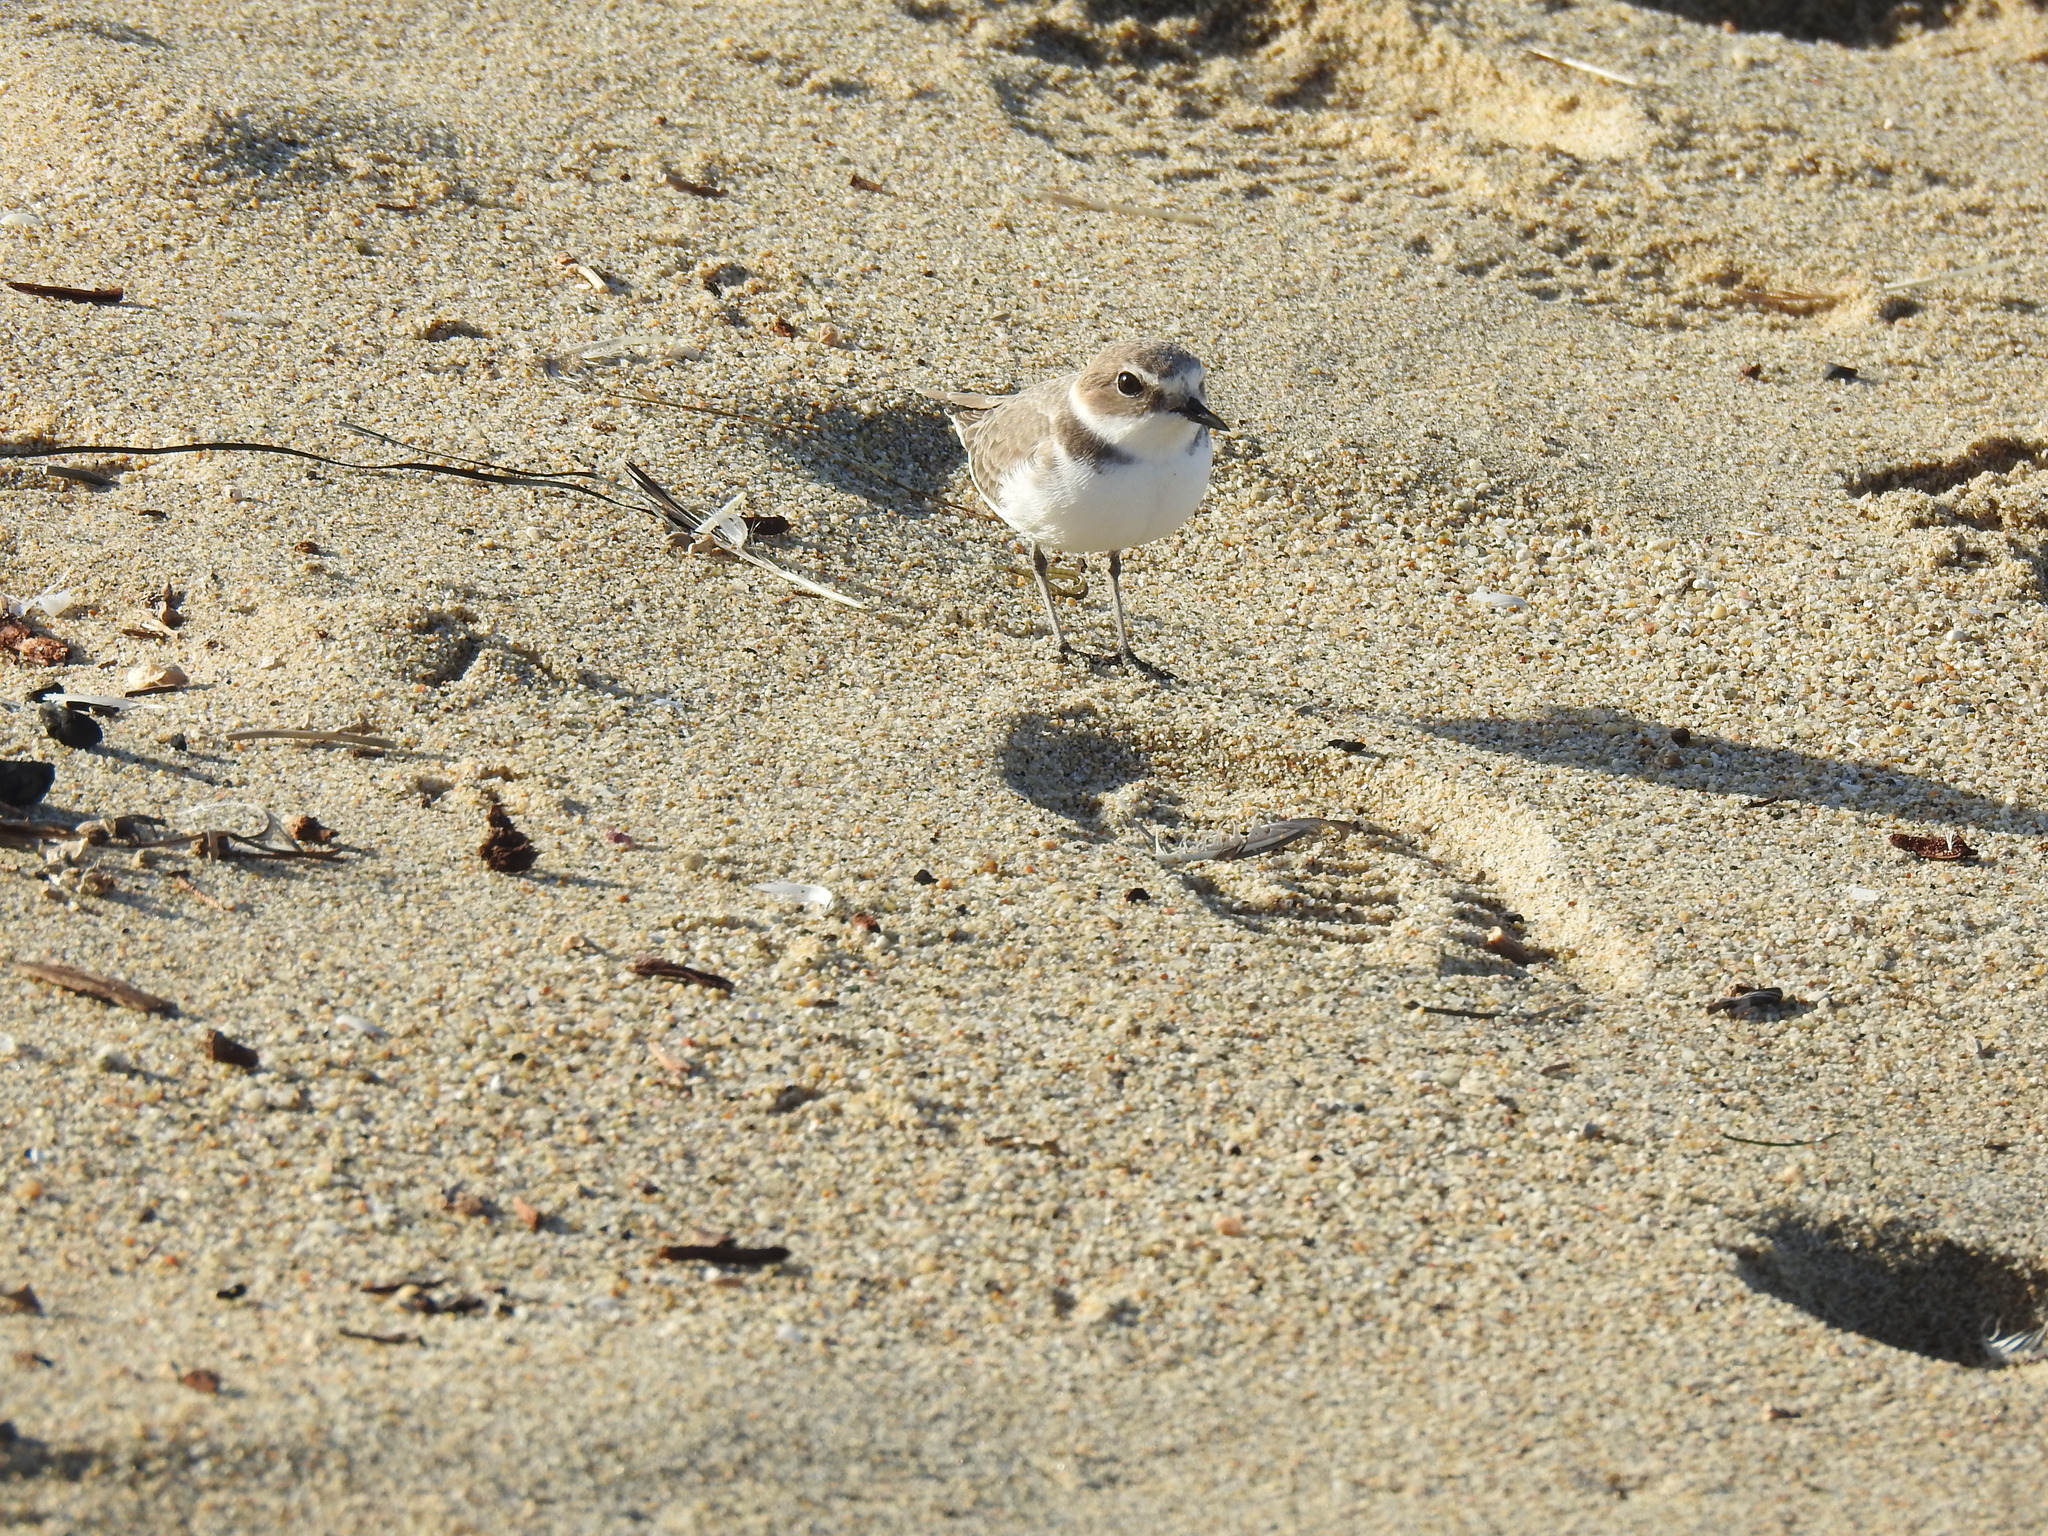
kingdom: Animalia
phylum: Chordata
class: Aves
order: Charadriiformes
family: Charadriidae
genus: Anarhynchus
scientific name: Anarhynchus
